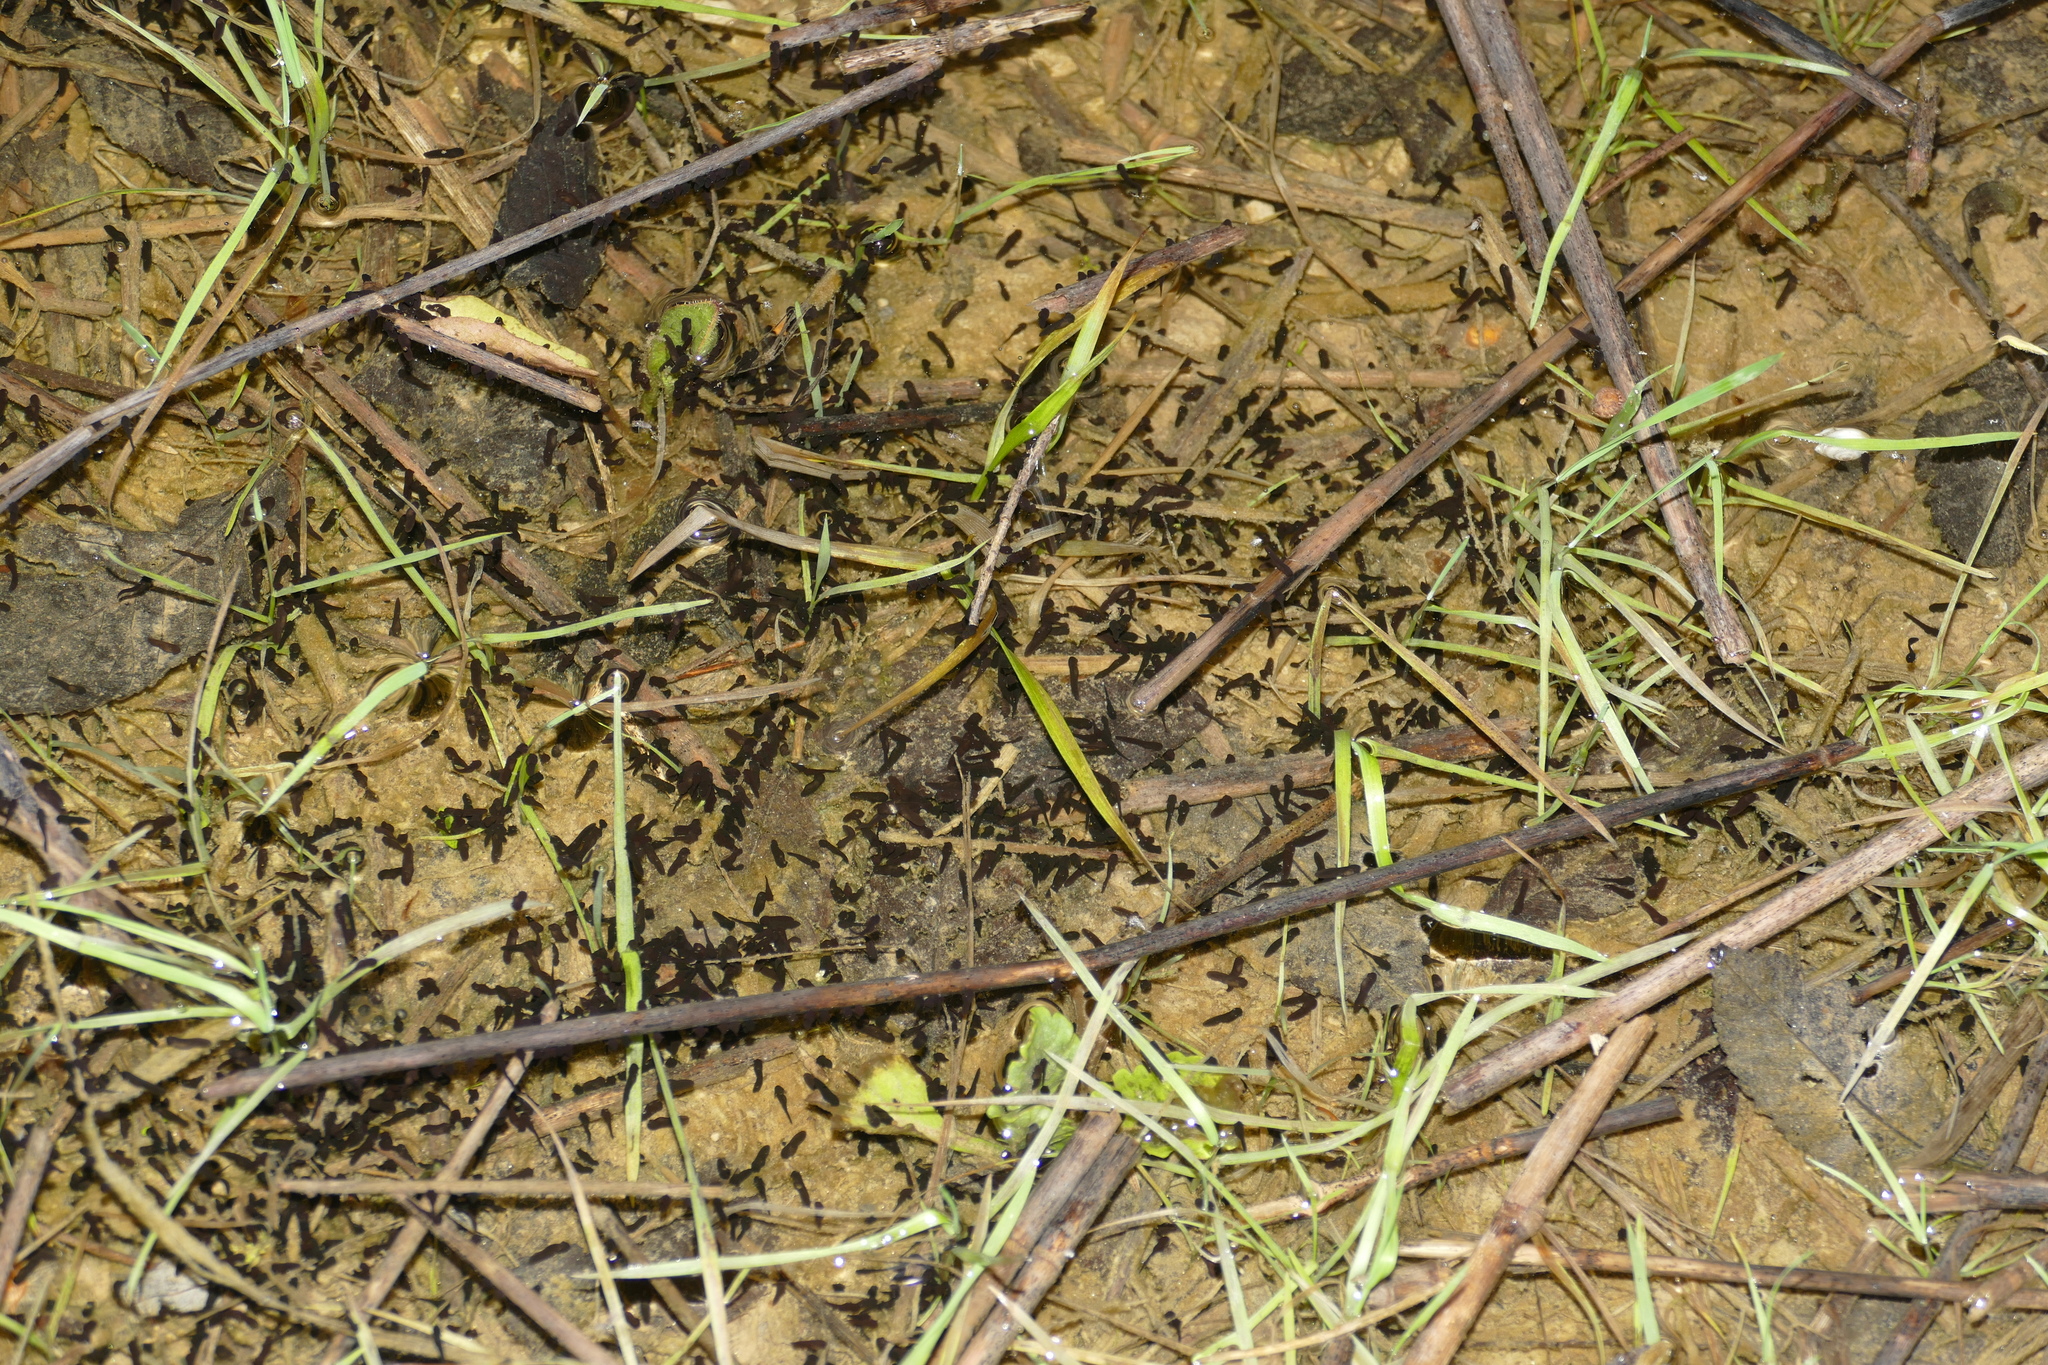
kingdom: Animalia
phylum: Chordata
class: Amphibia
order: Anura
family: Bufonidae
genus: Epidalea
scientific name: Epidalea calamita
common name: Natterjack toad
